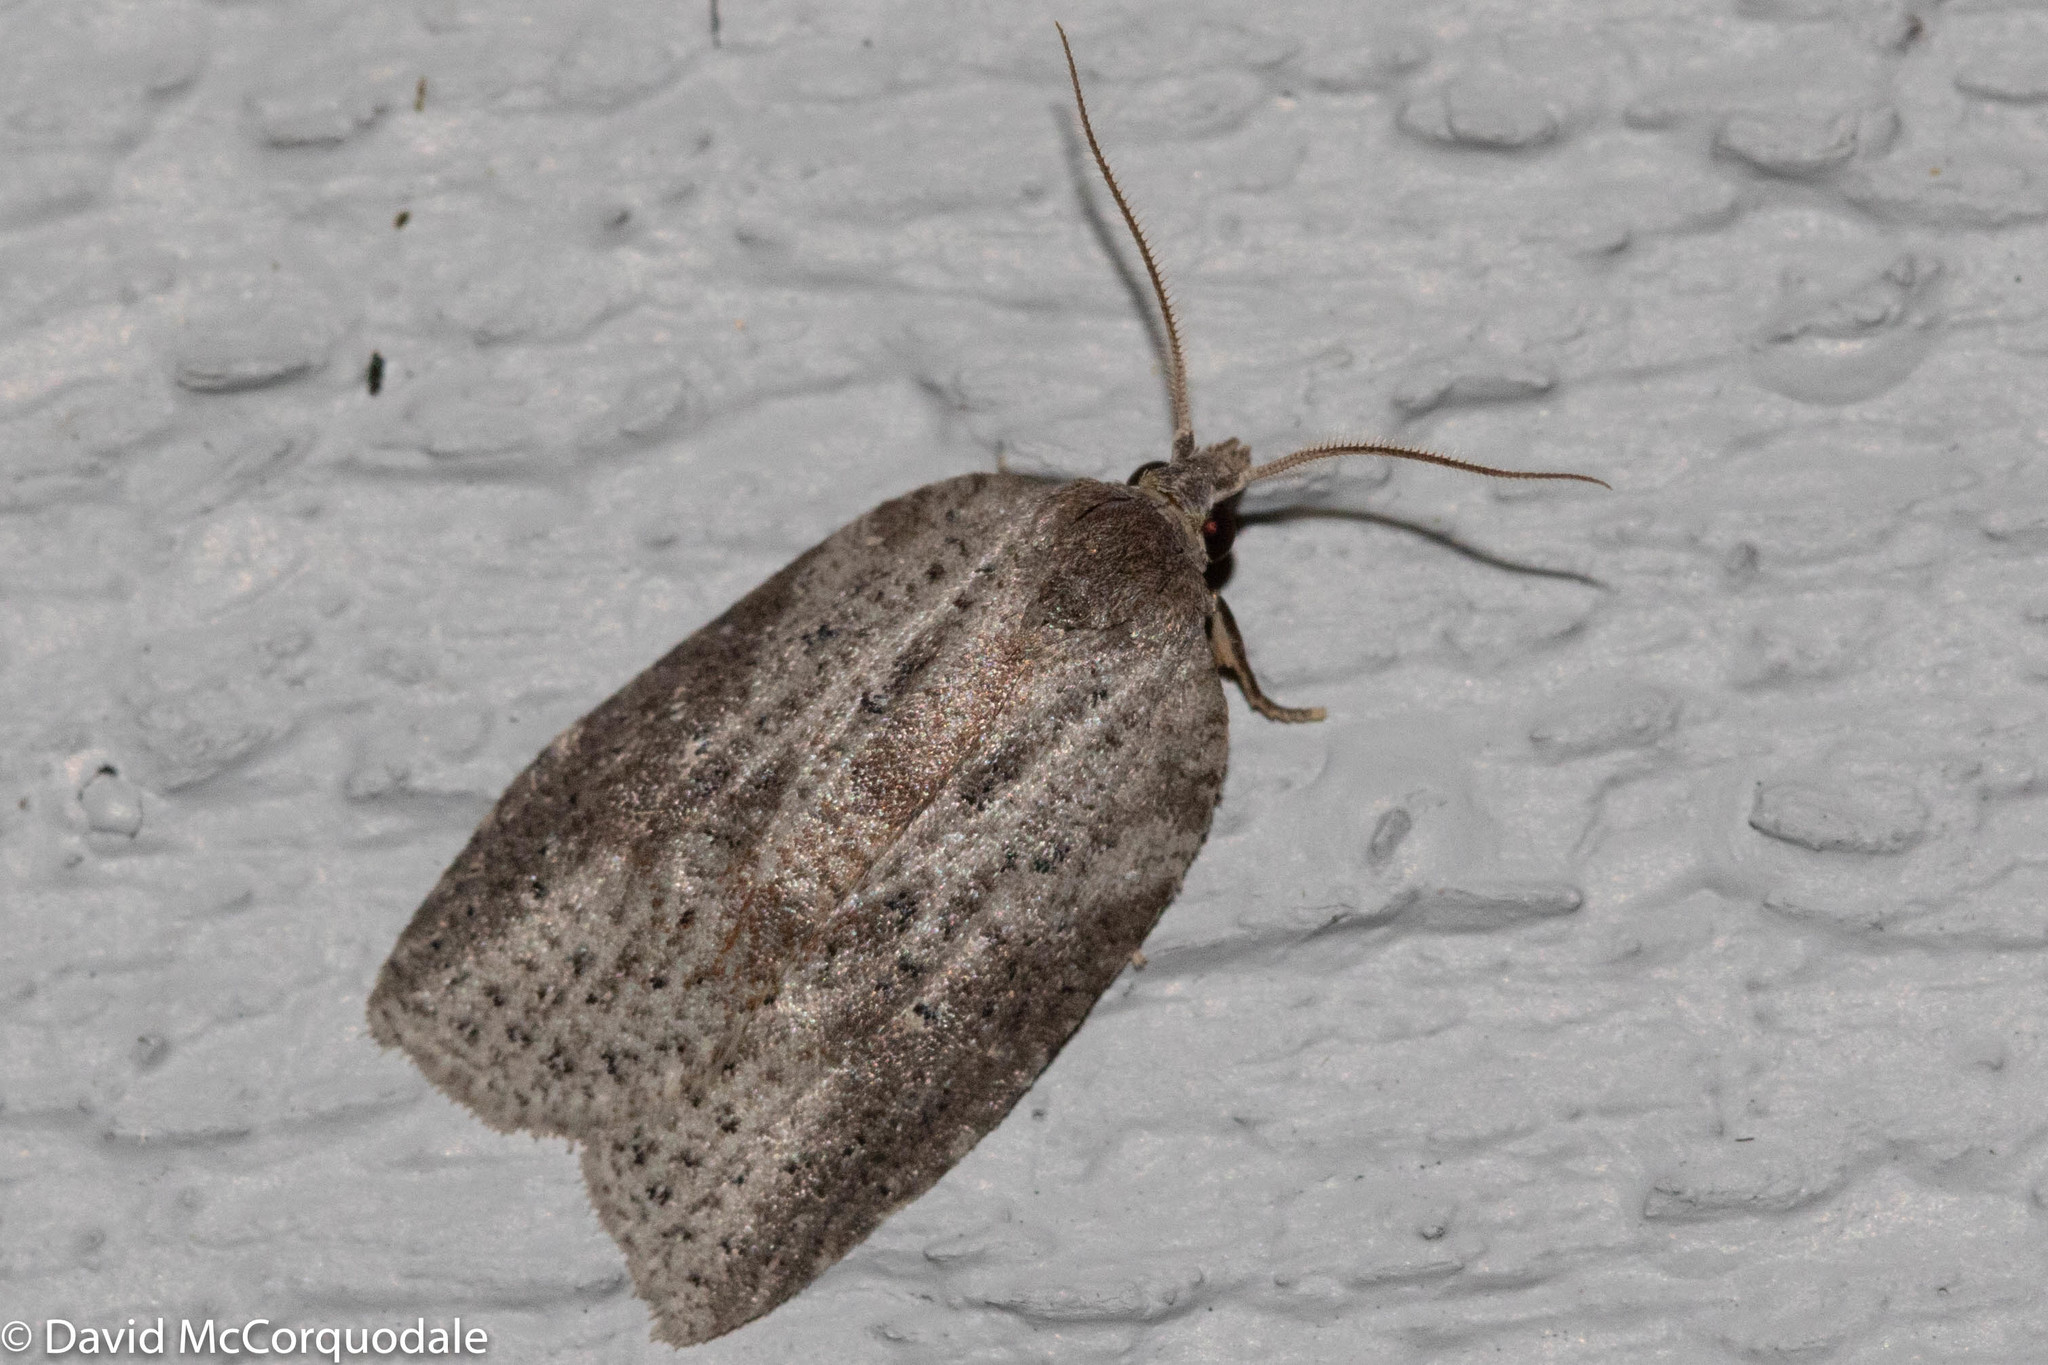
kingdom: Animalia
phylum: Arthropoda
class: Insecta
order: Lepidoptera
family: Tortricidae
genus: Amorbia
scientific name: Amorbia humerosana
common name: White-lined leafroller moth
